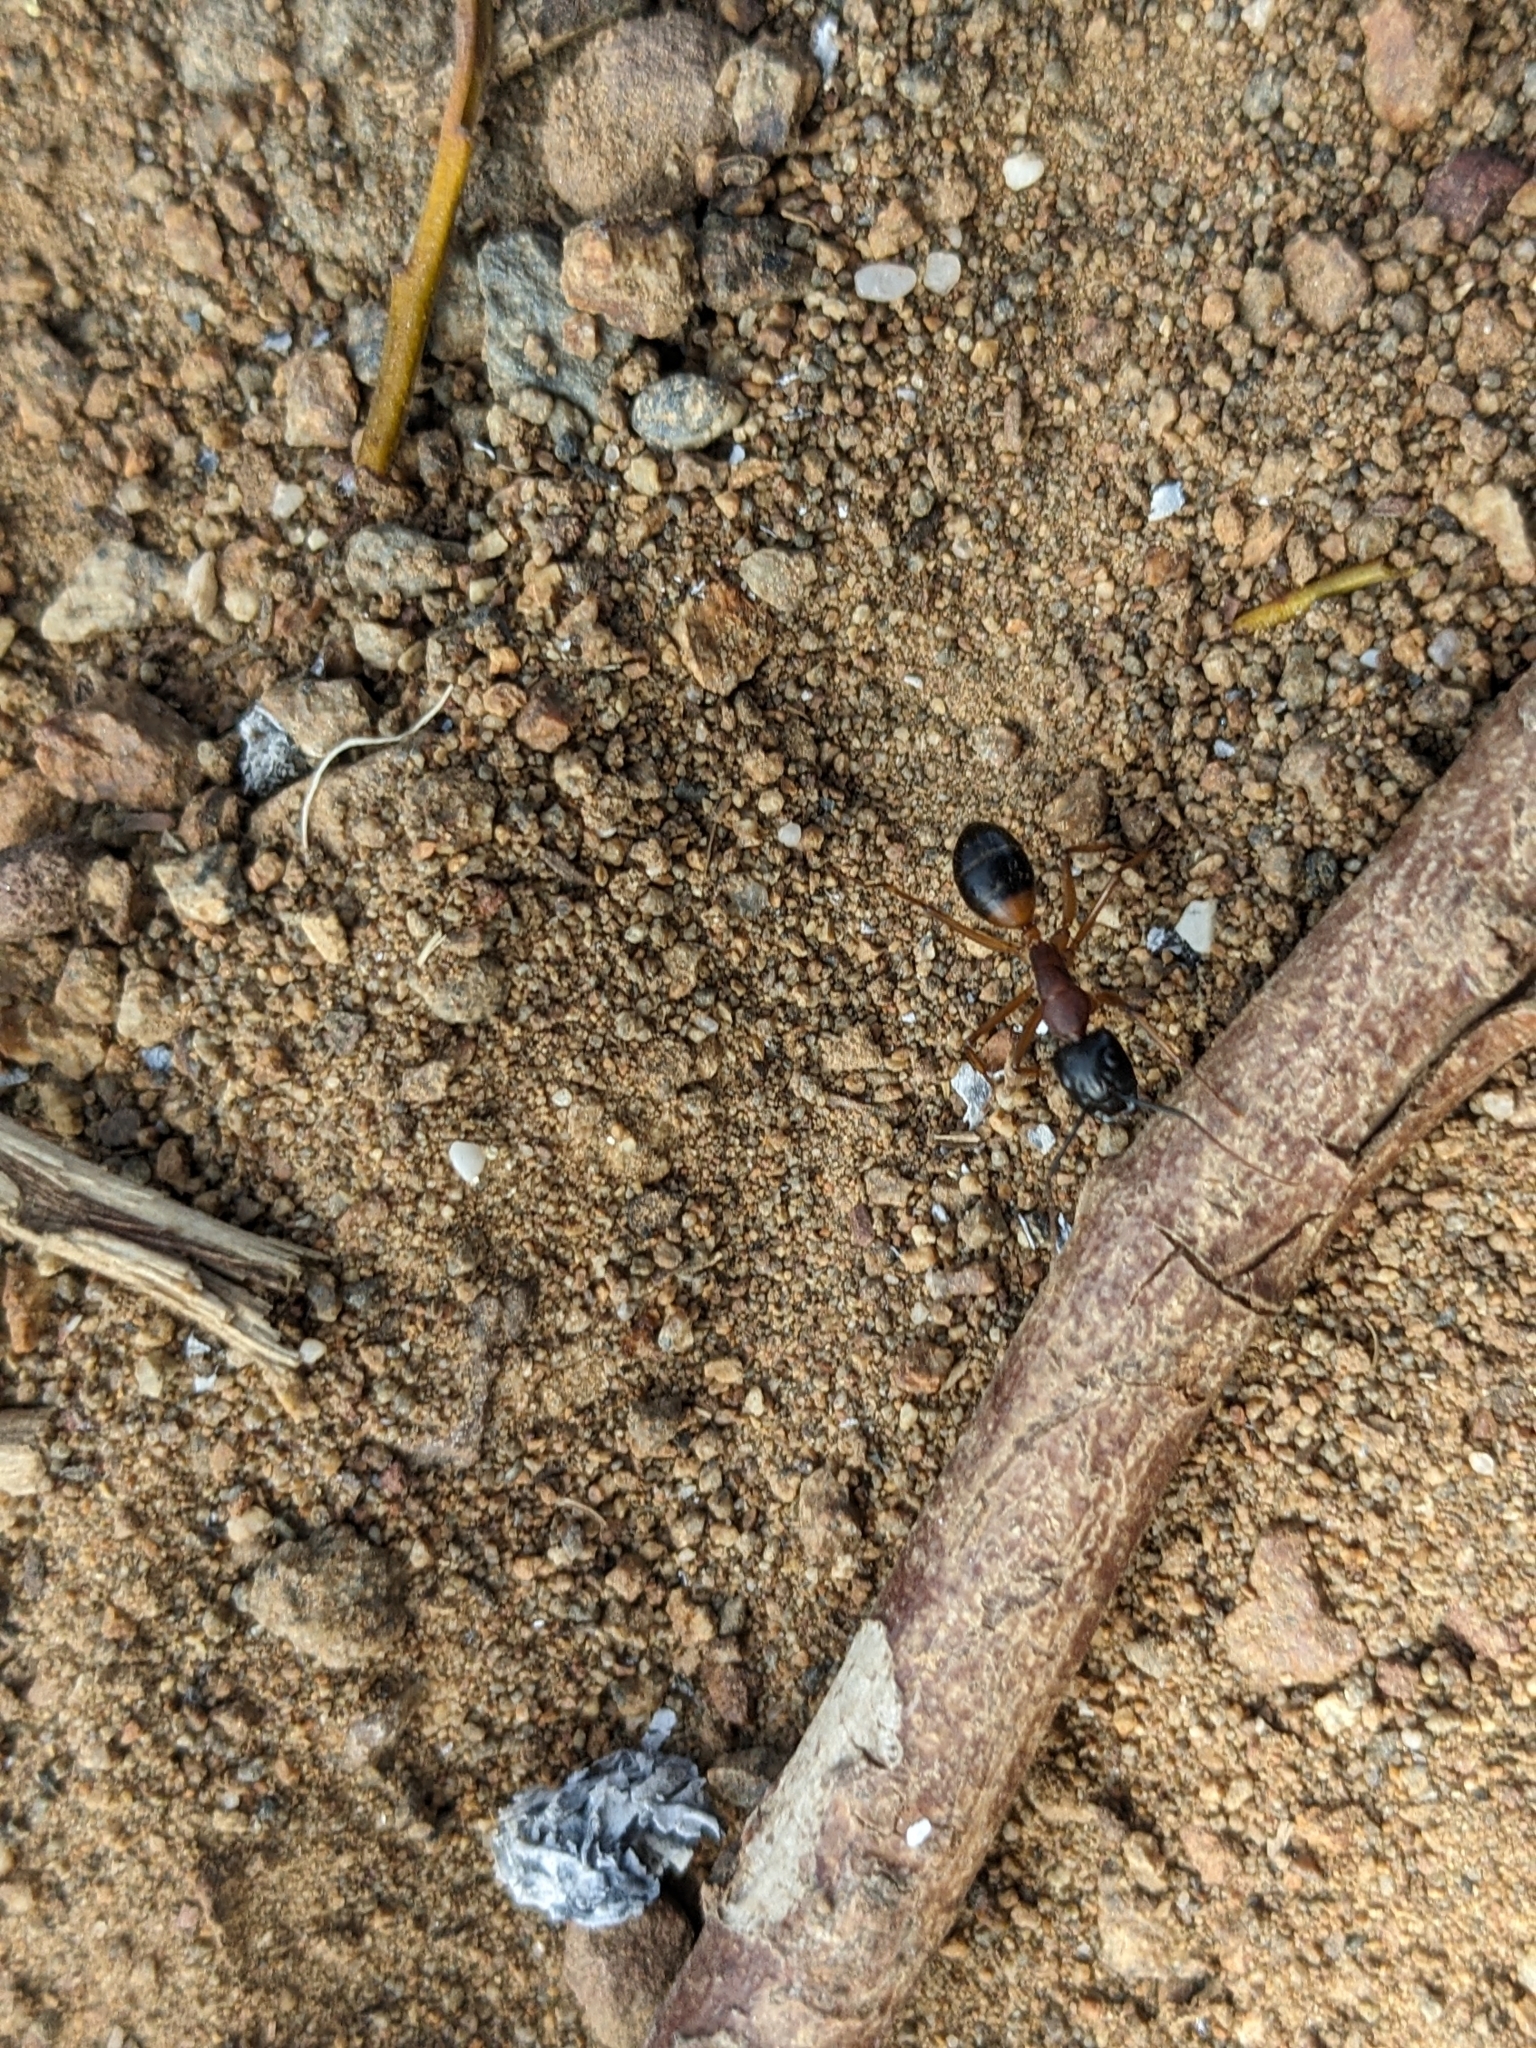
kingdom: Animalia
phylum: Arthropoda
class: Insecta
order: Hymenoptera
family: Formicidae
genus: Camponotus
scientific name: Camponotus consobrinus
